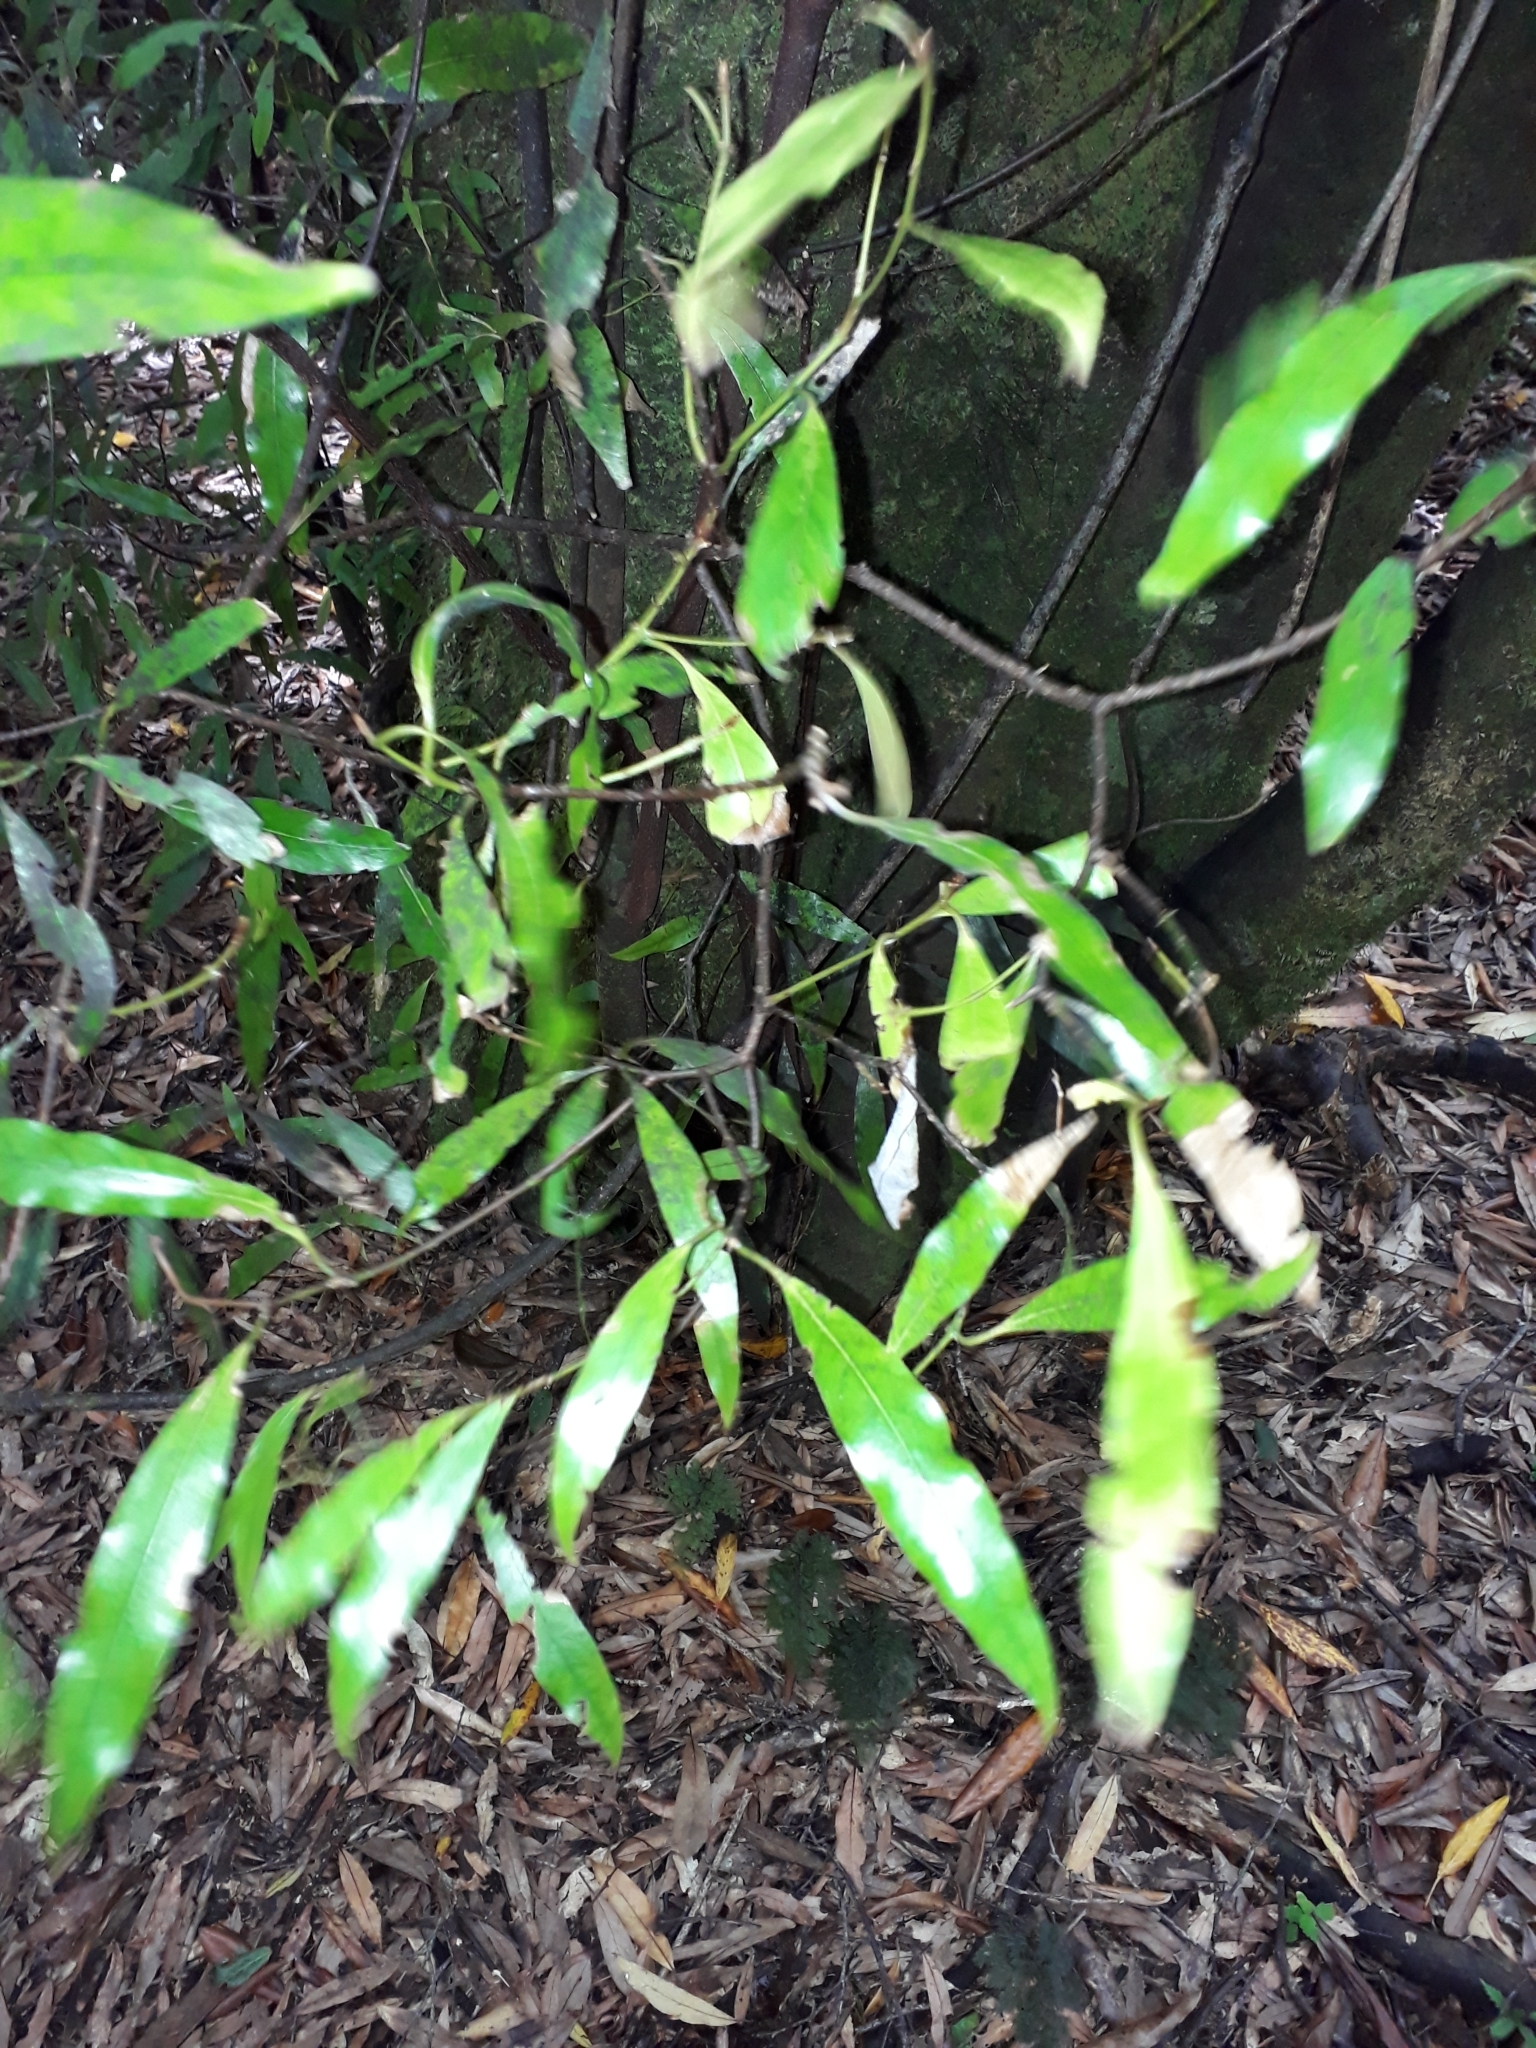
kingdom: Plantae
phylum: Tracheophyta
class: Magnoliopsida
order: Laurales
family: Lauraceae
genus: Beilschmiedia
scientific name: Beilschmiedia tawa
